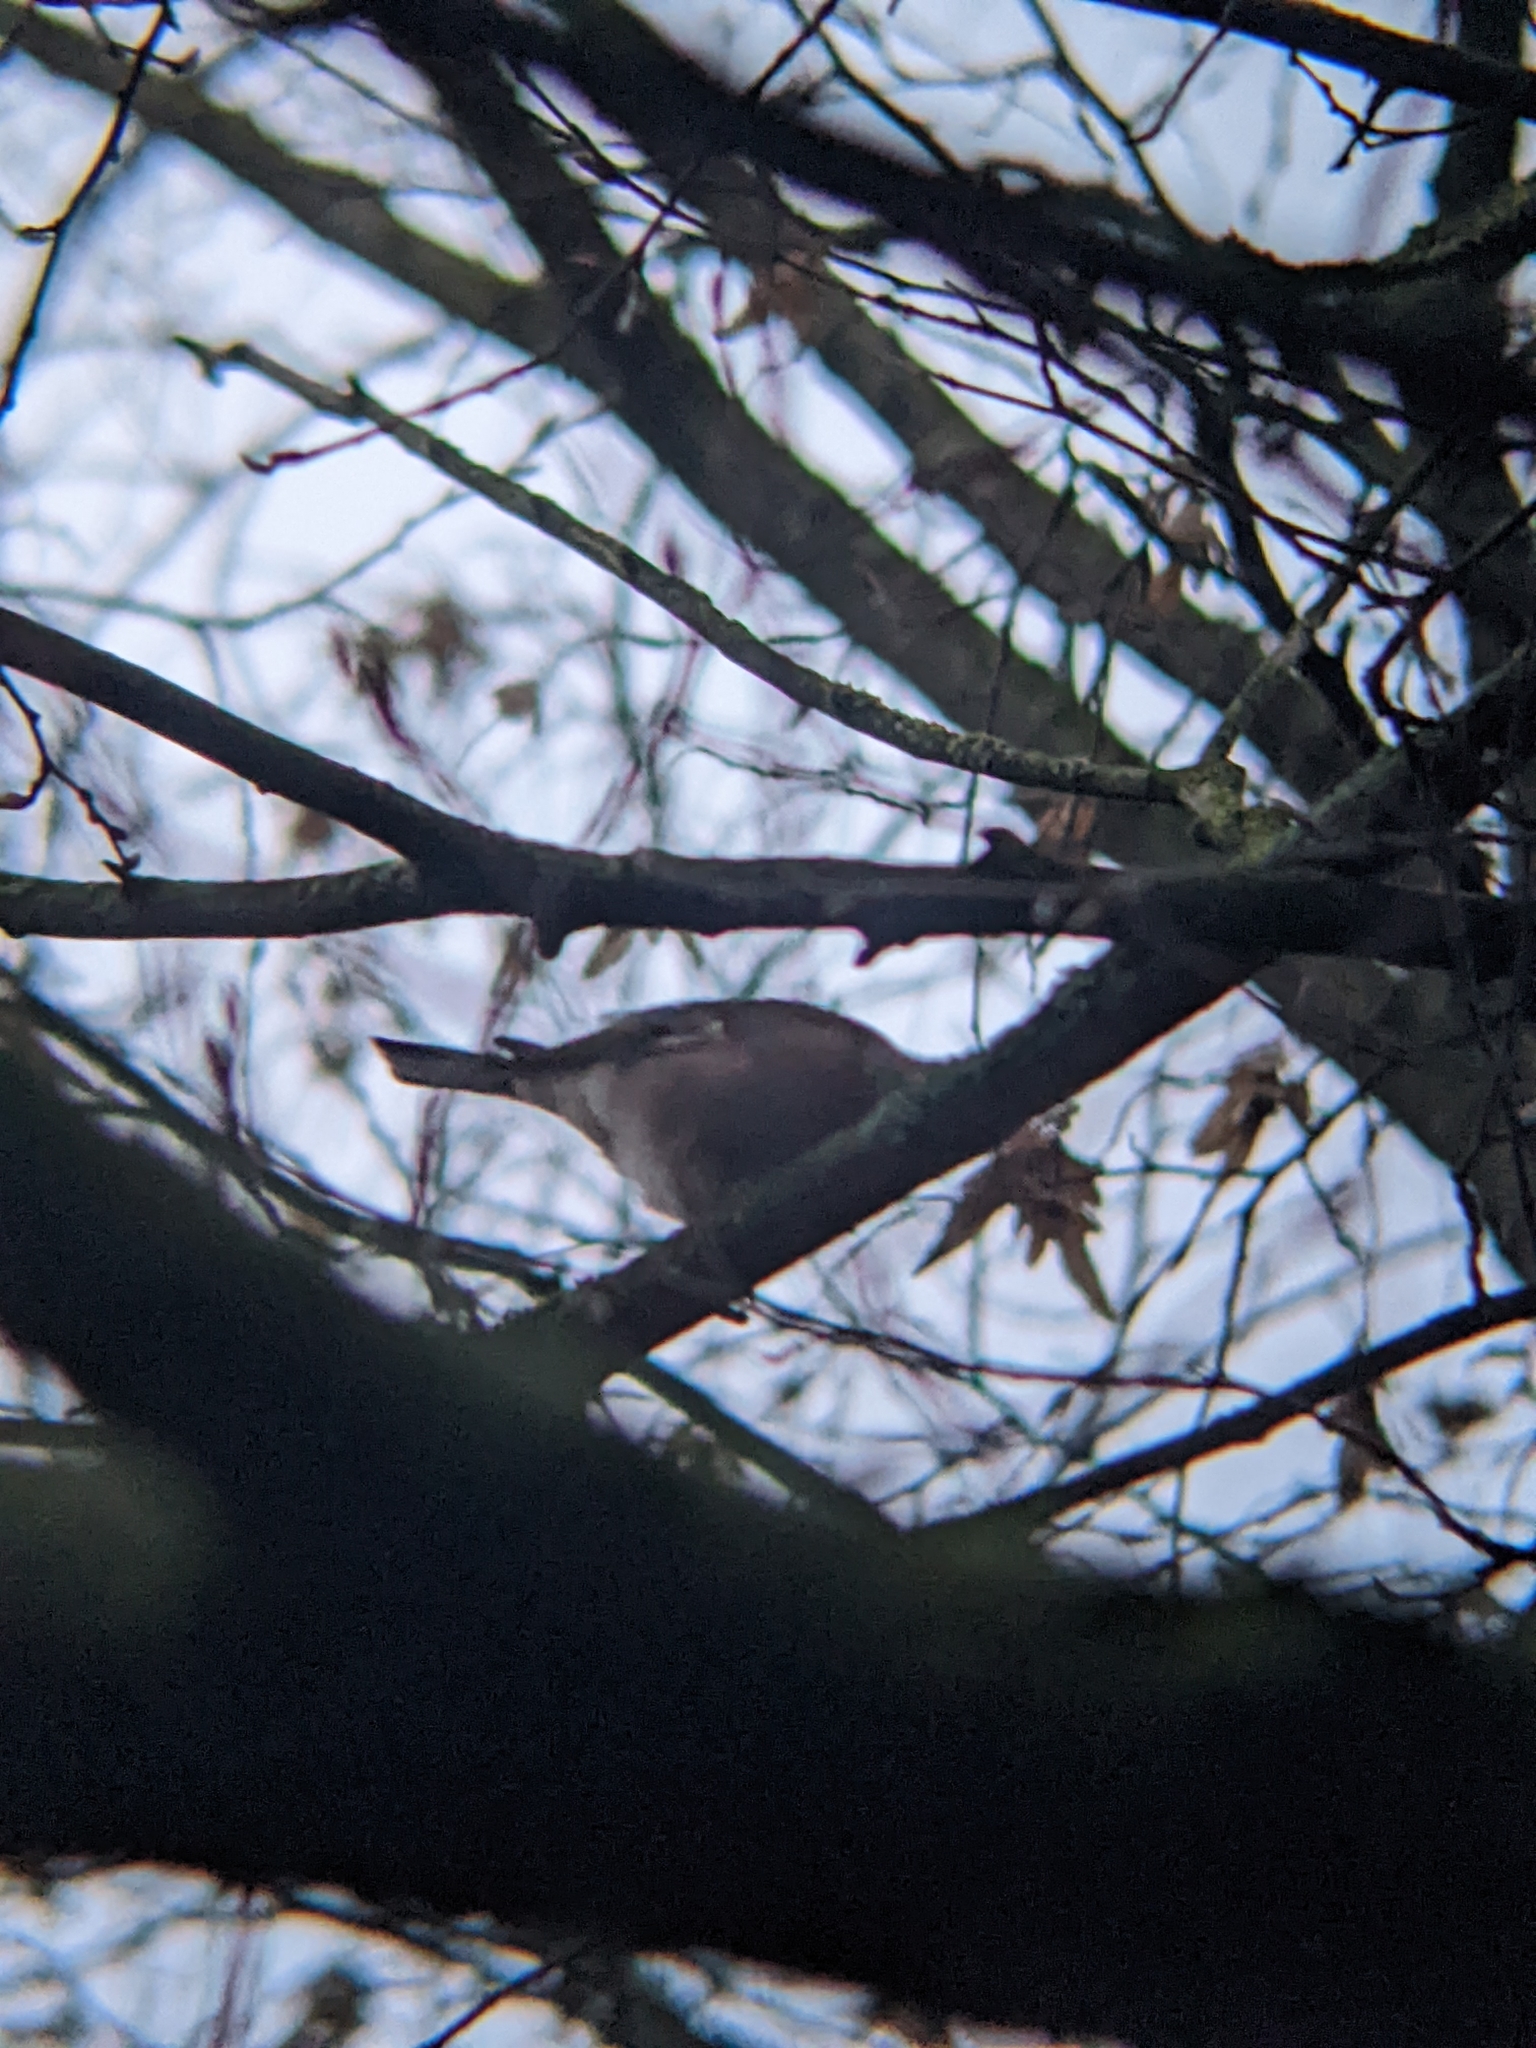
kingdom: Animalia
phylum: Chordata
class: Aves
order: Passeriformes
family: Fringillidae
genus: Fringilla
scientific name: Fringilla coelebs
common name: Common chaffinch
